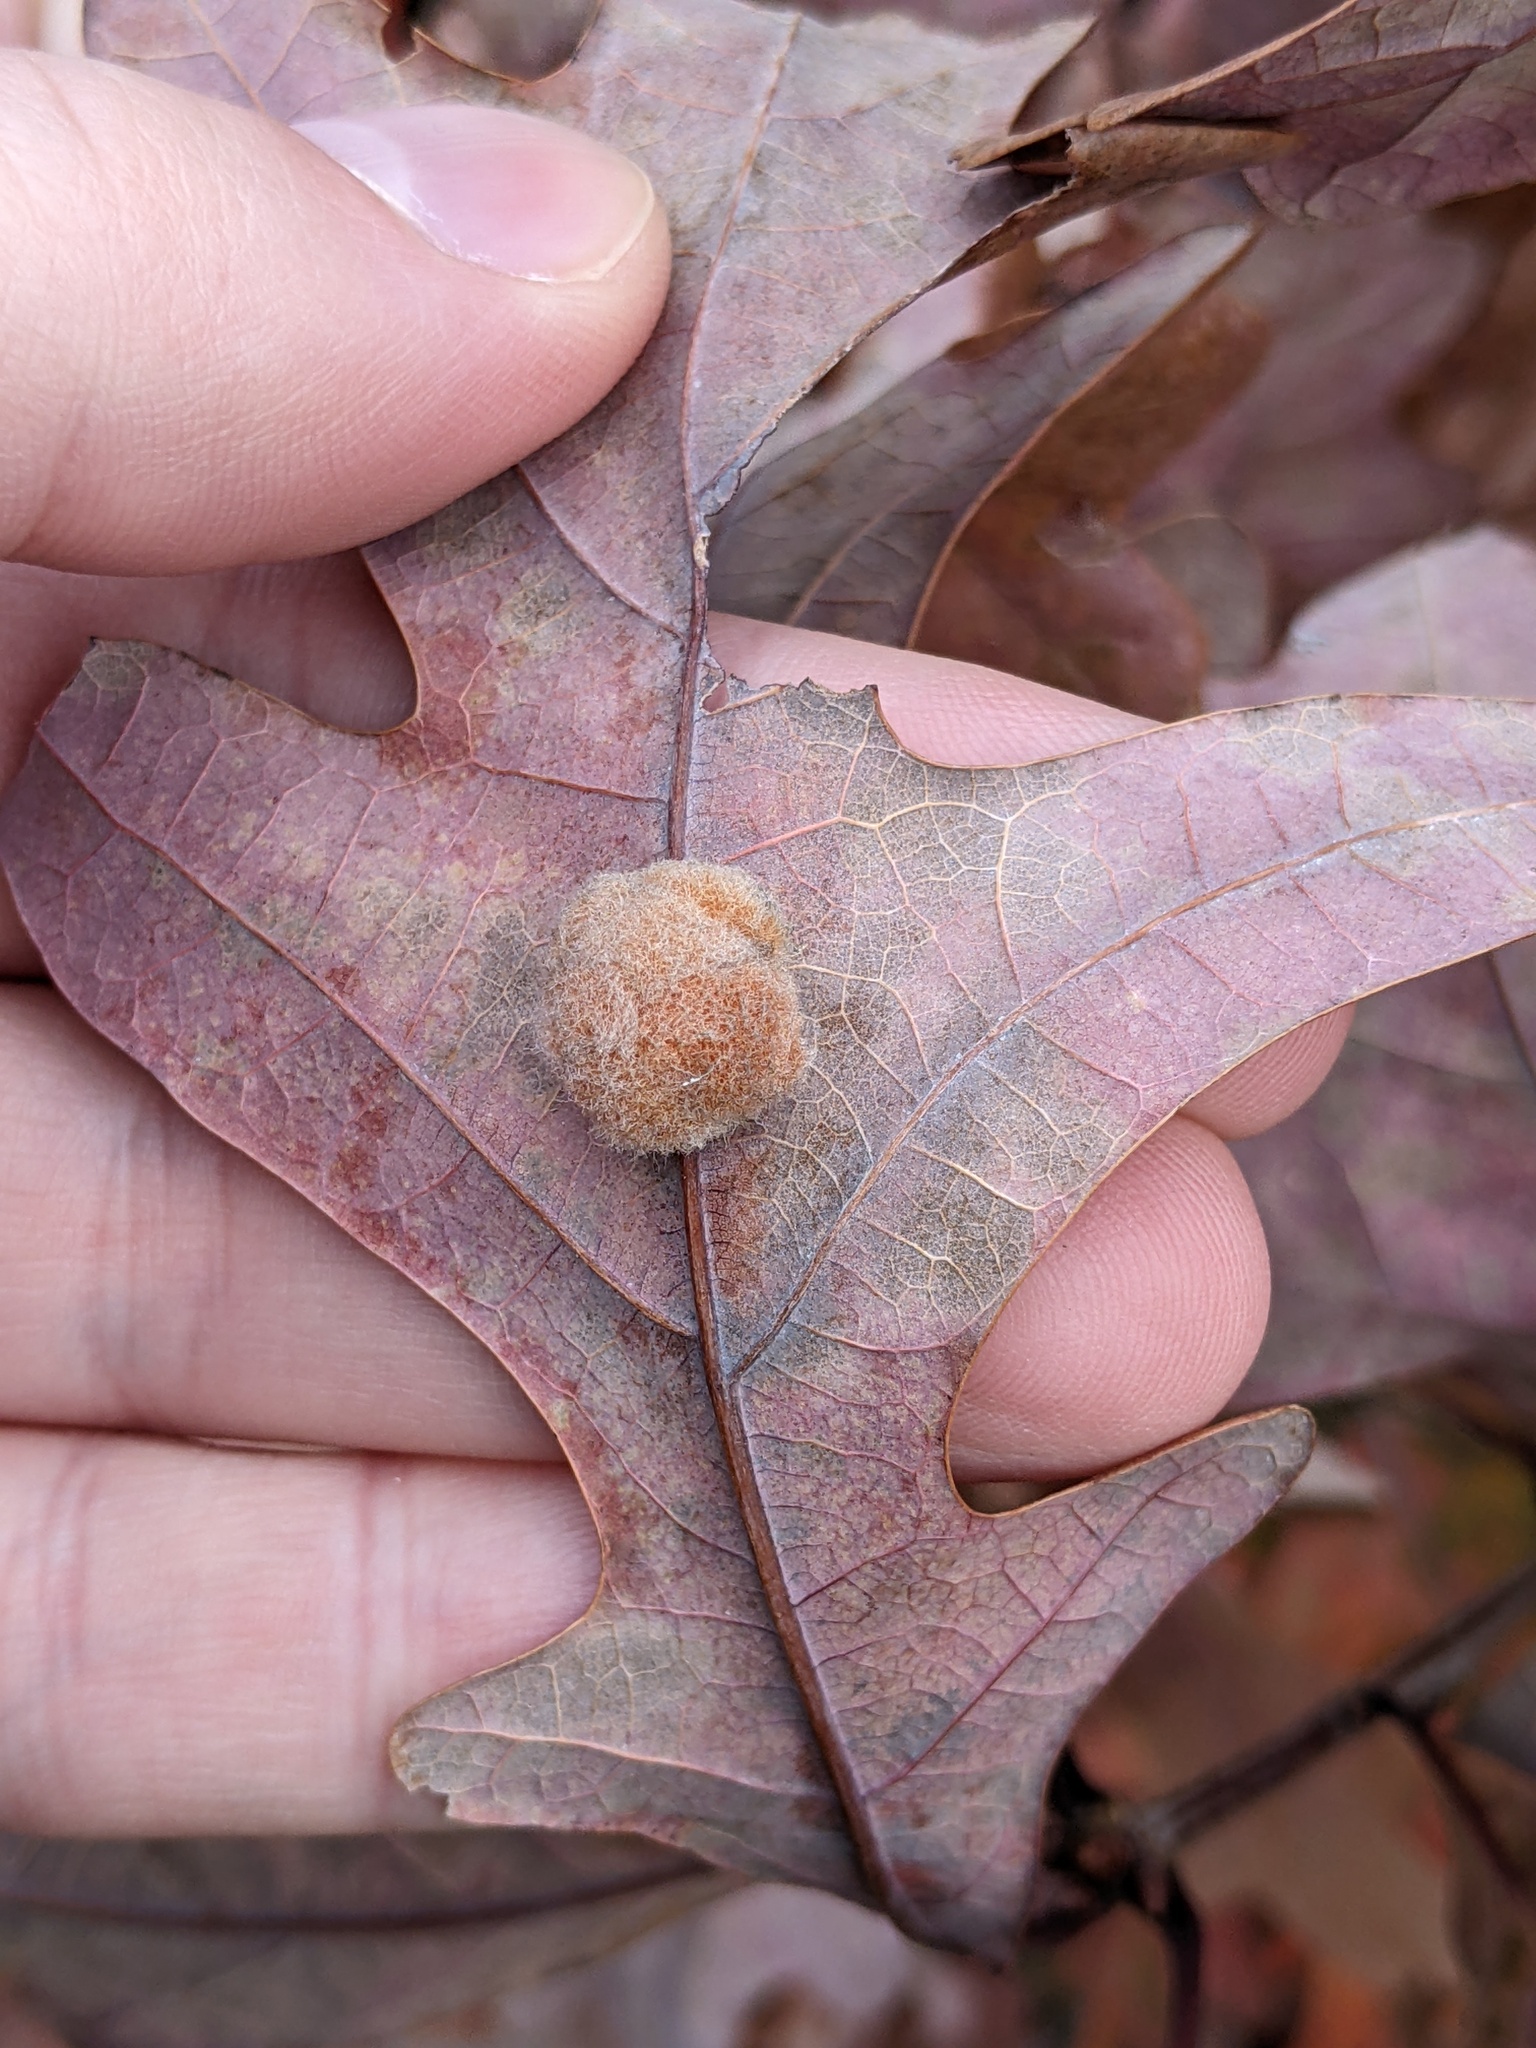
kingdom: Animalia
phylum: Arthropoda
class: Insecta
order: Hymenoptera
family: Cynipidae
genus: Andricus
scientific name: Andricus quercusflocci
